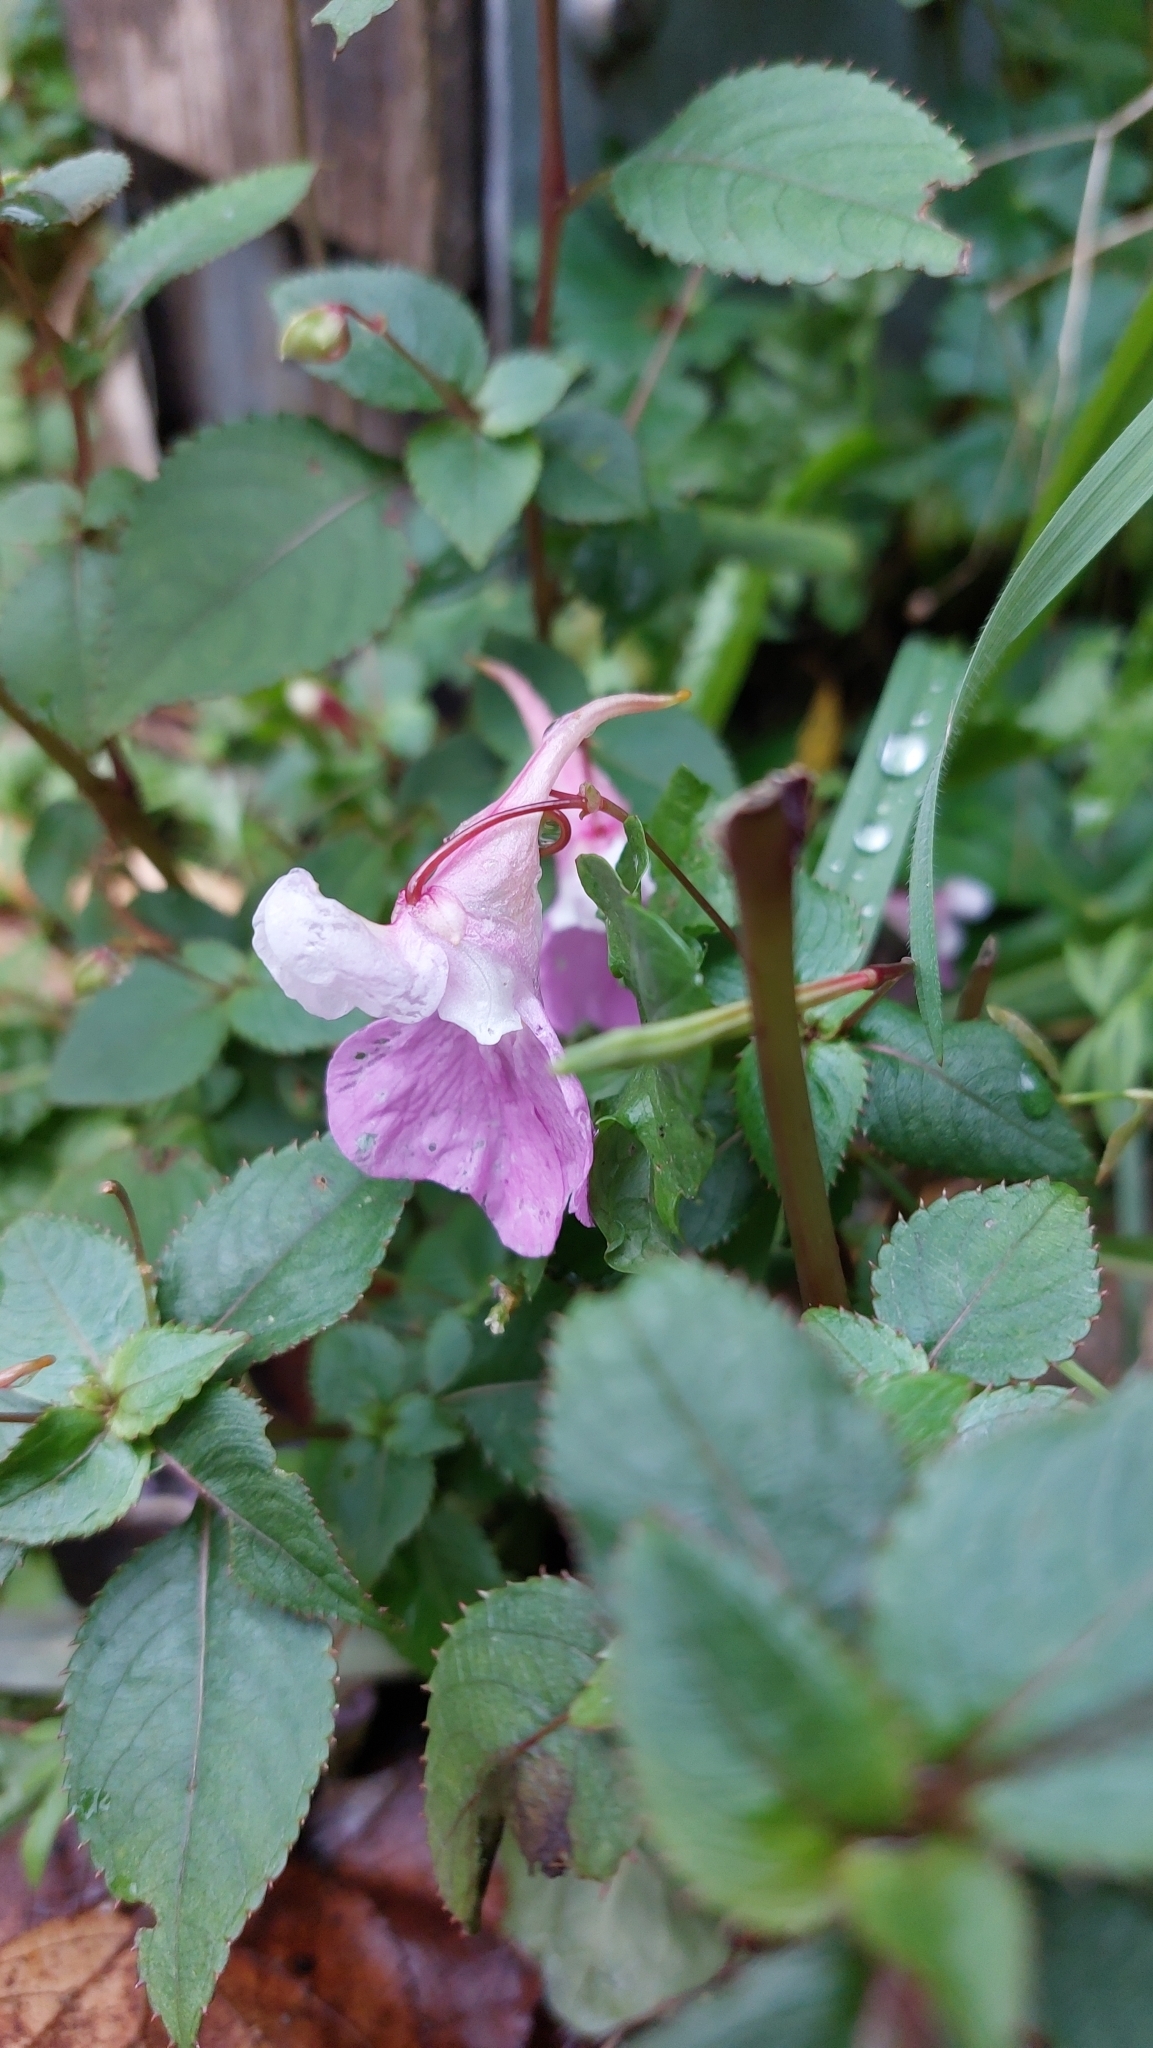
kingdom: Plantae
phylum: Tracheophyta
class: Magnoliopsida
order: Ericales
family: Balsaminaceae
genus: Impatiens
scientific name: Impatiens balfourii
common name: Balfour's touch-me-not
